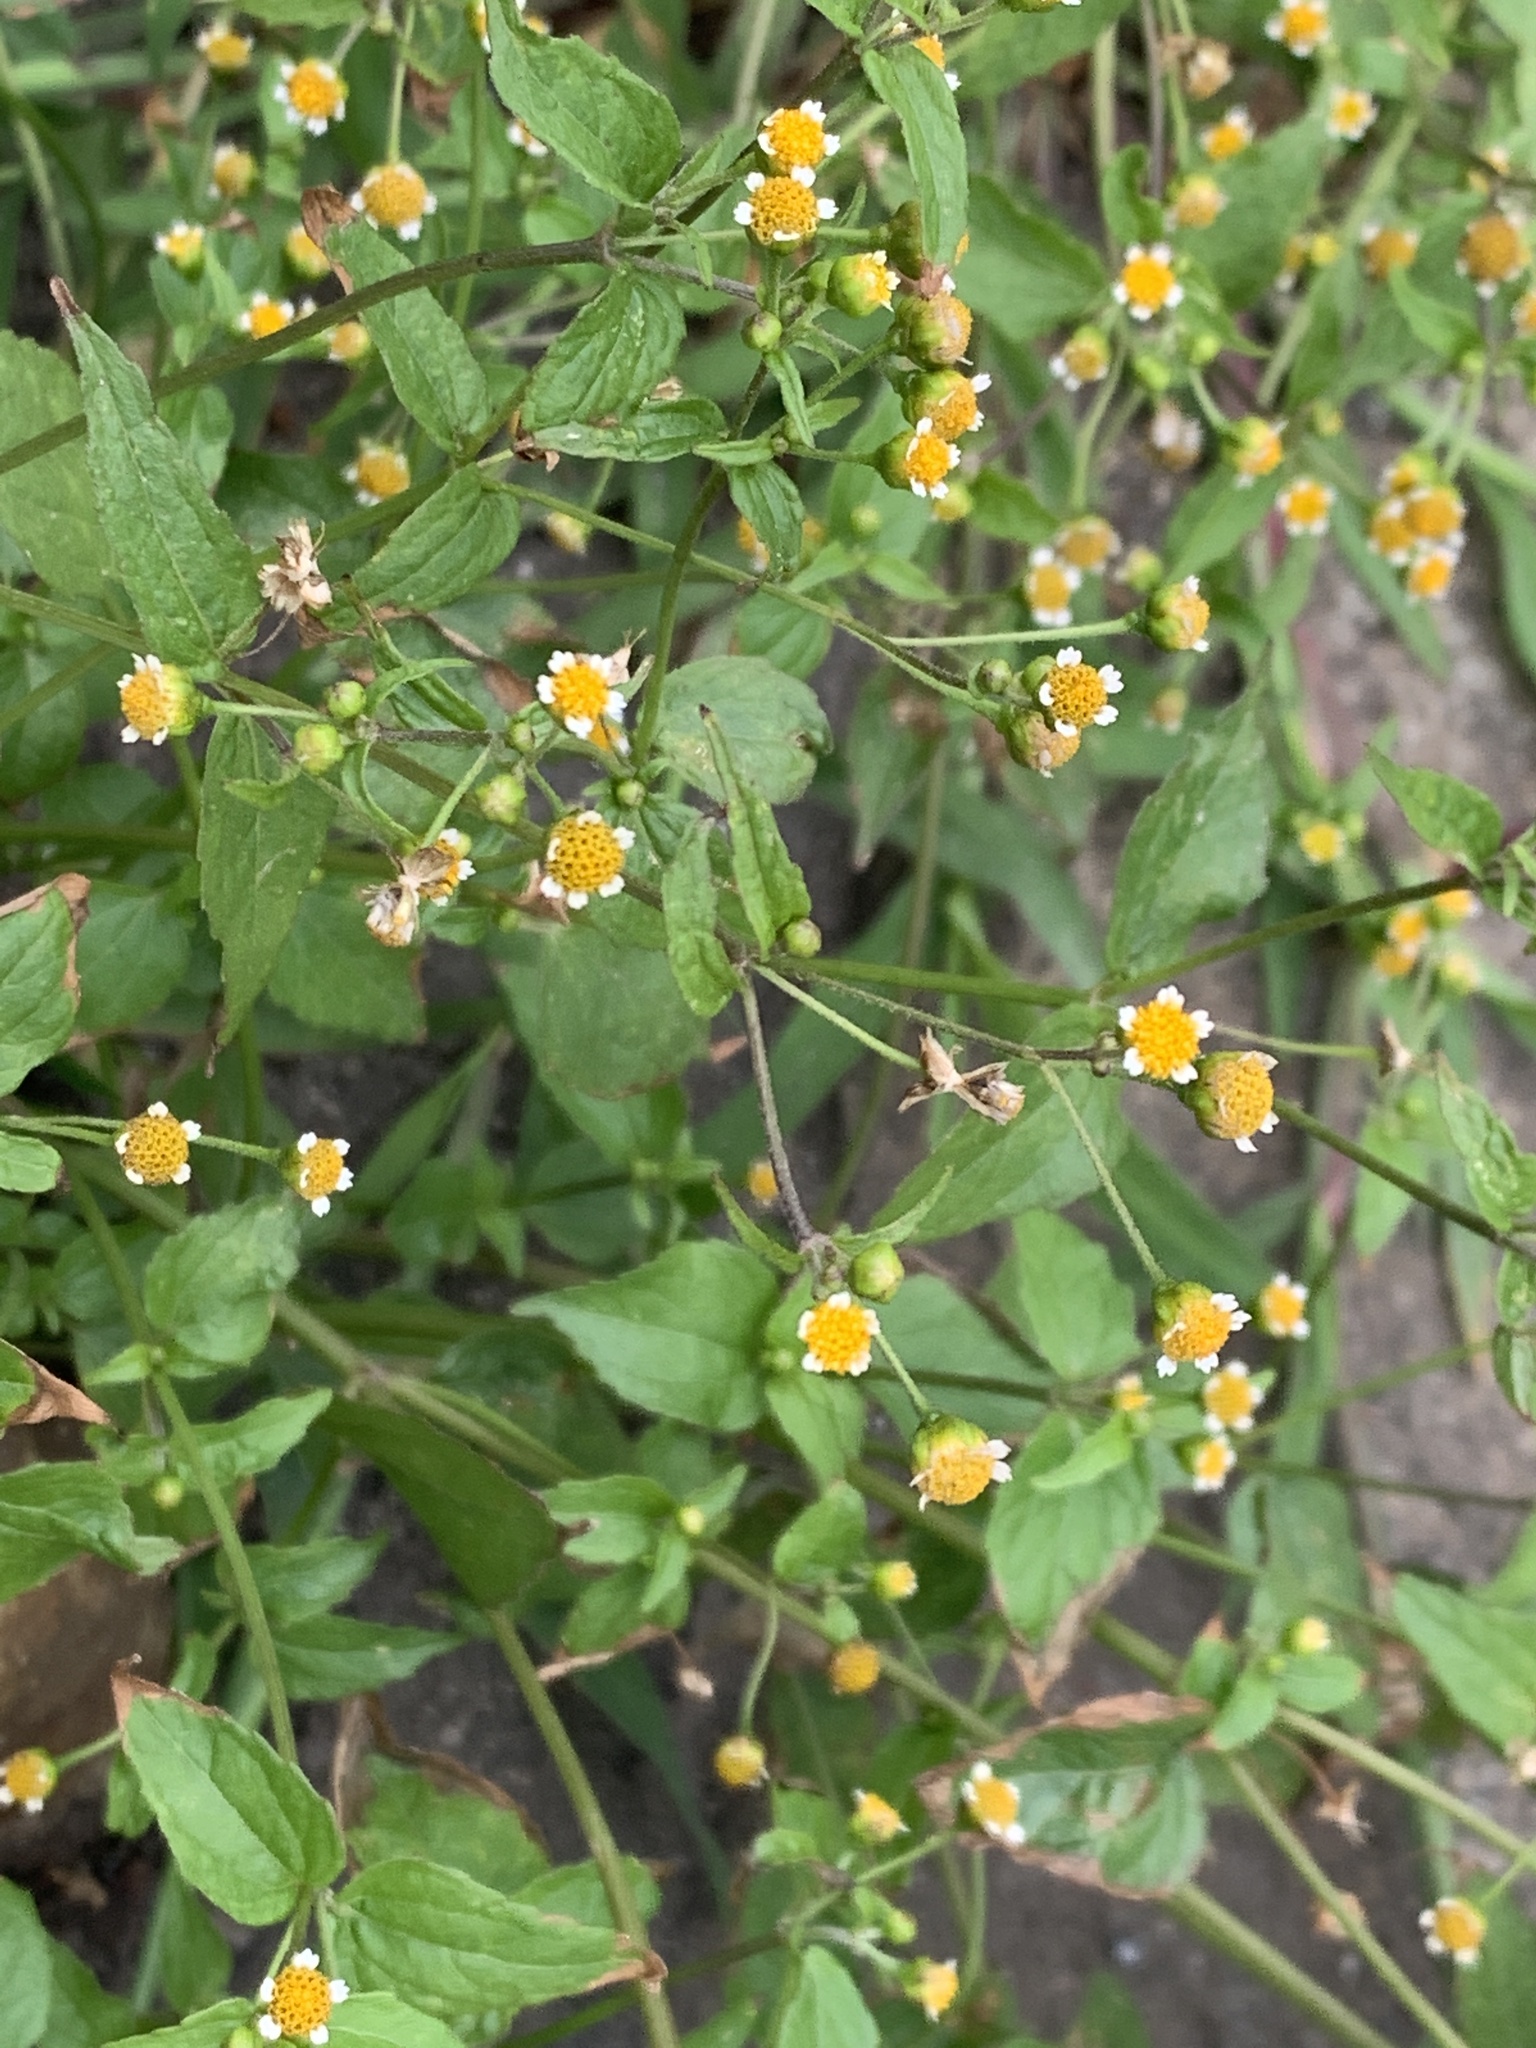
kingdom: Plantae
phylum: Tracheophyta
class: Magnoliopsida
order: Asterales
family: Asteraceae
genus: Galinsoga
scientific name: Galinsoga parviflora
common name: Gallant soldier
